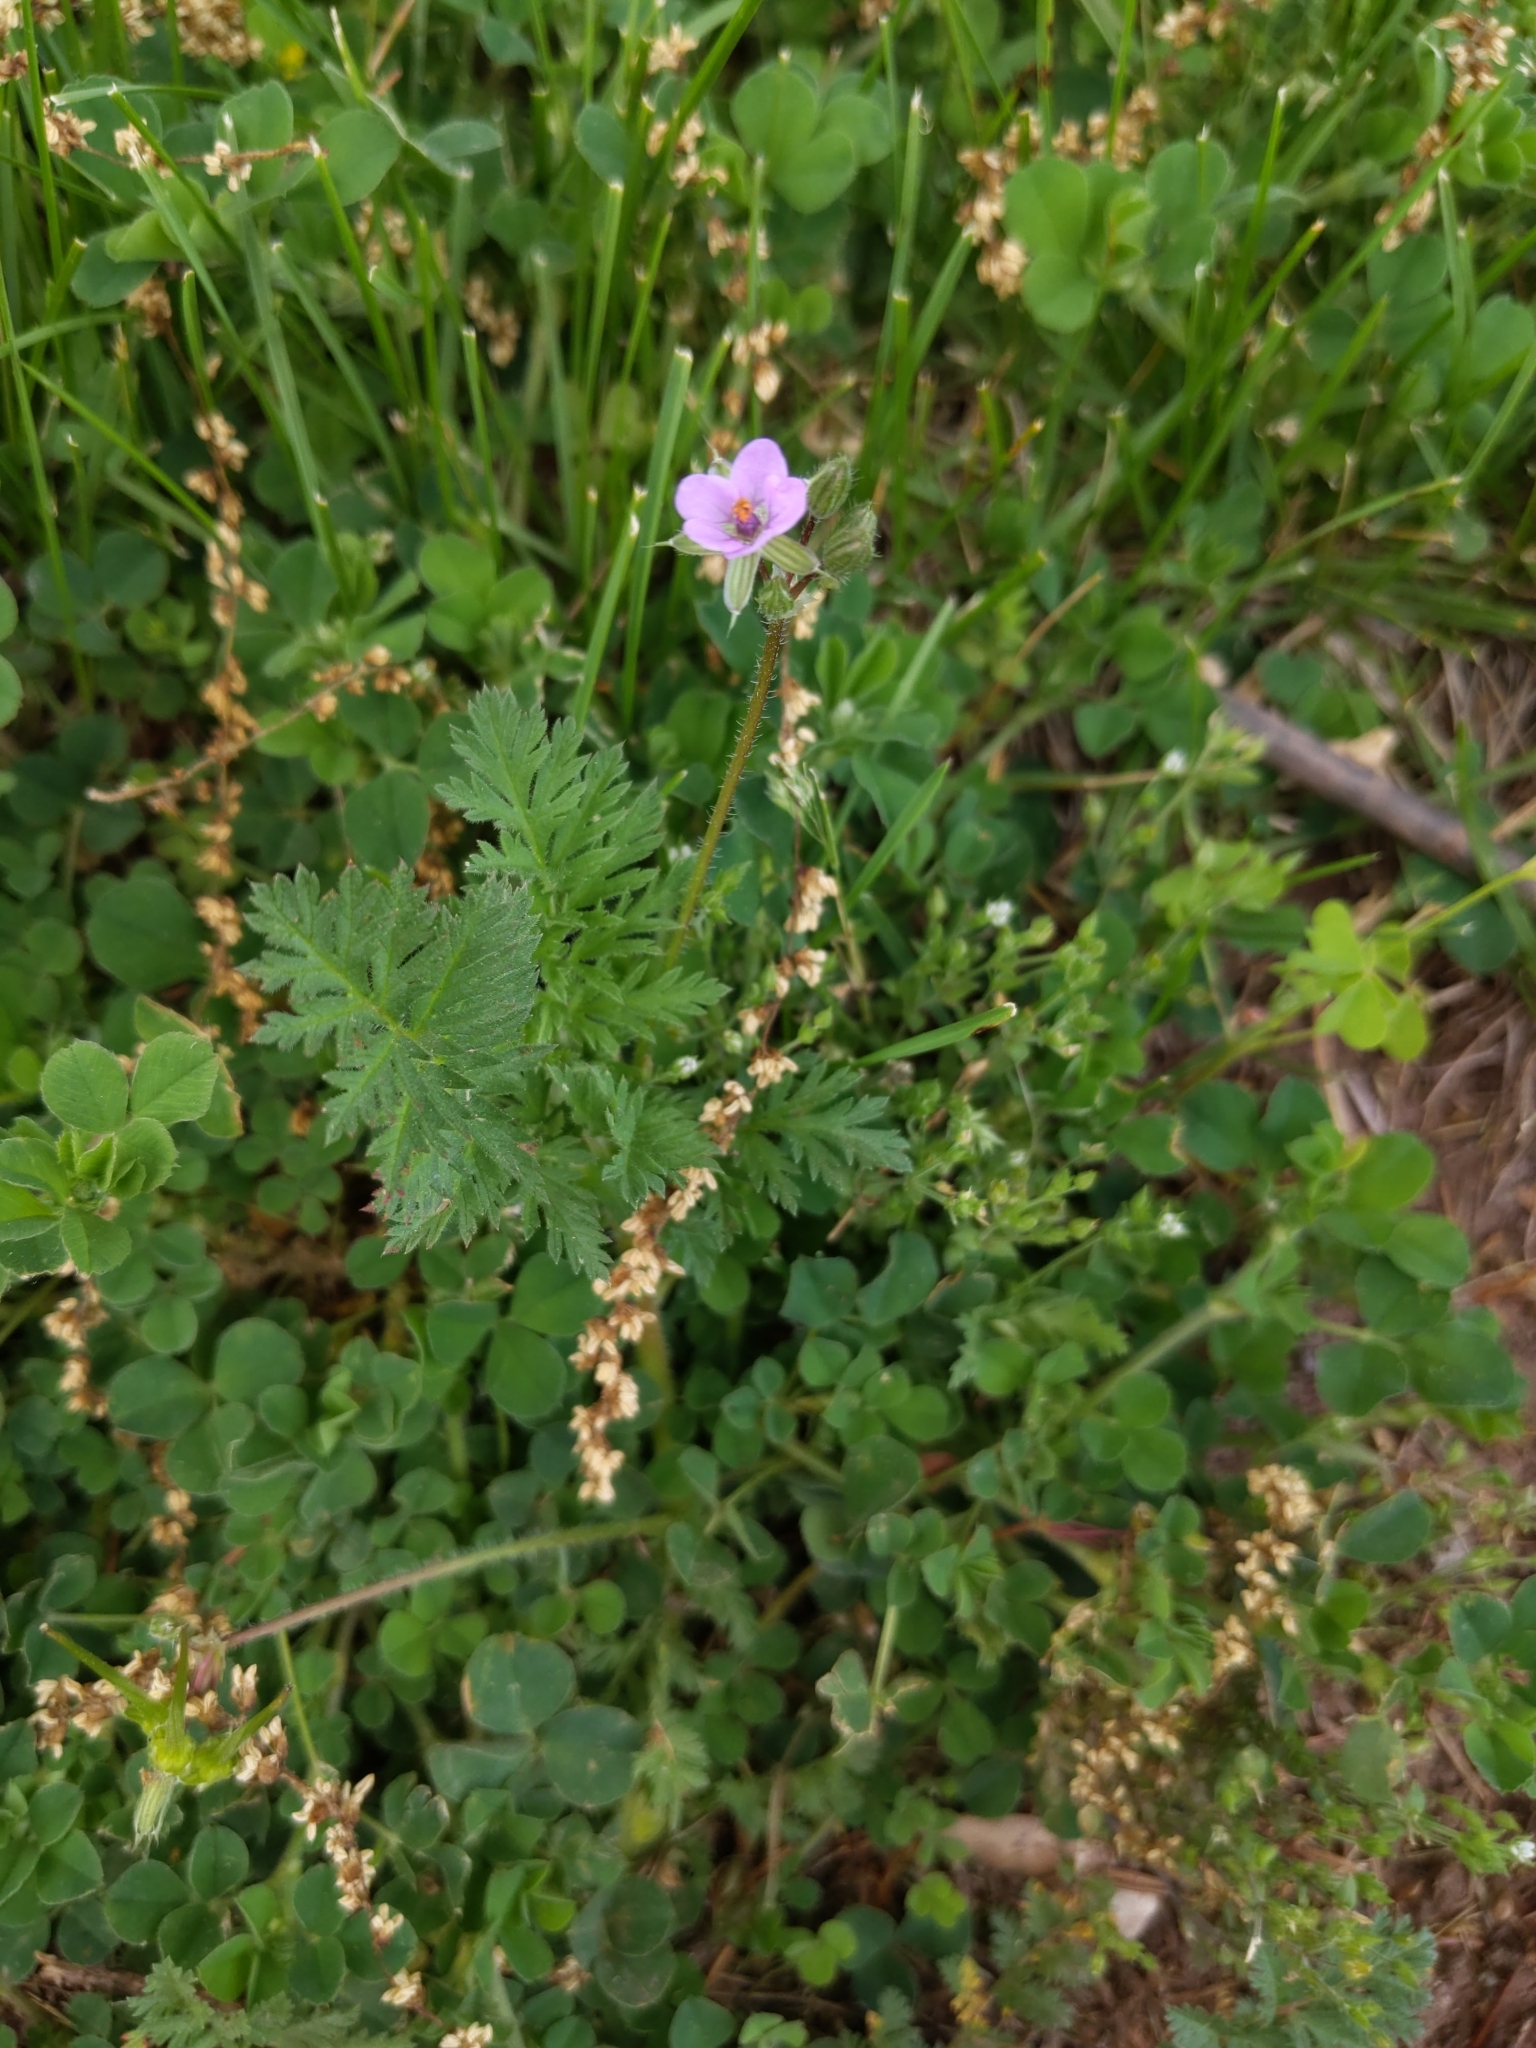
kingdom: Plantae
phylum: Tracheophyta
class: Magnoliopsida
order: Geraniales
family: Geraniaceae
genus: Erodium
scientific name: Erodium cicutarium
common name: Common stork's-bill
